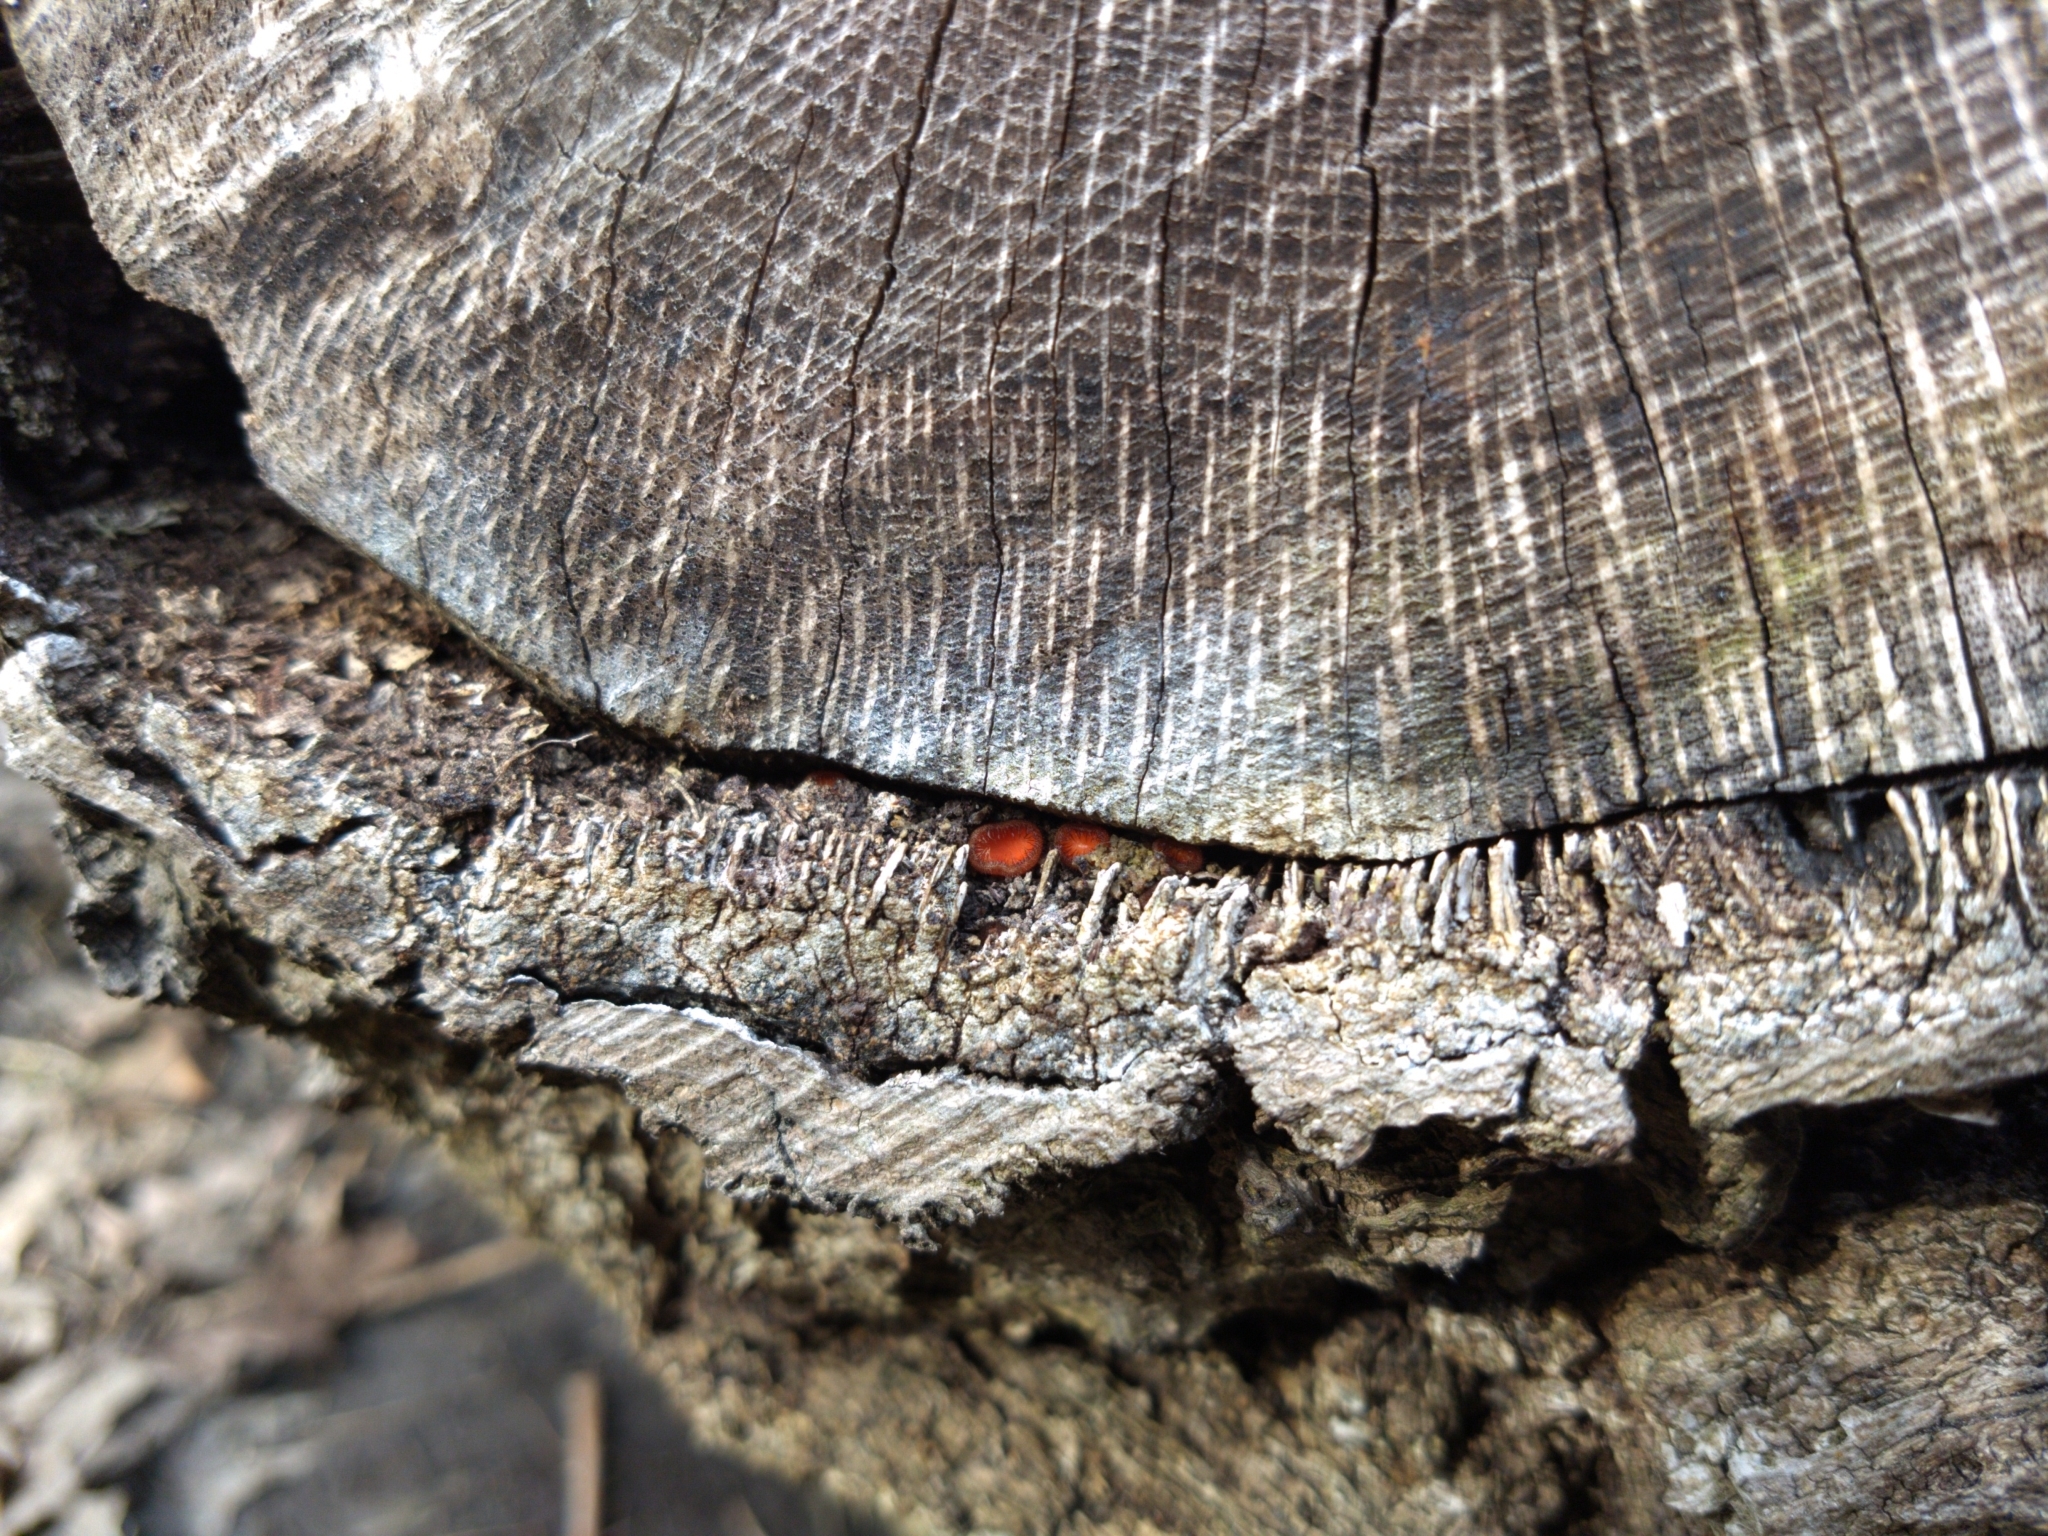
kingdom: Fungi
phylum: Ascomycota
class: Pezizomycetes
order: Pezizales
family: Pyronemataceae
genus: Scutellinia
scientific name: Scutellinia
